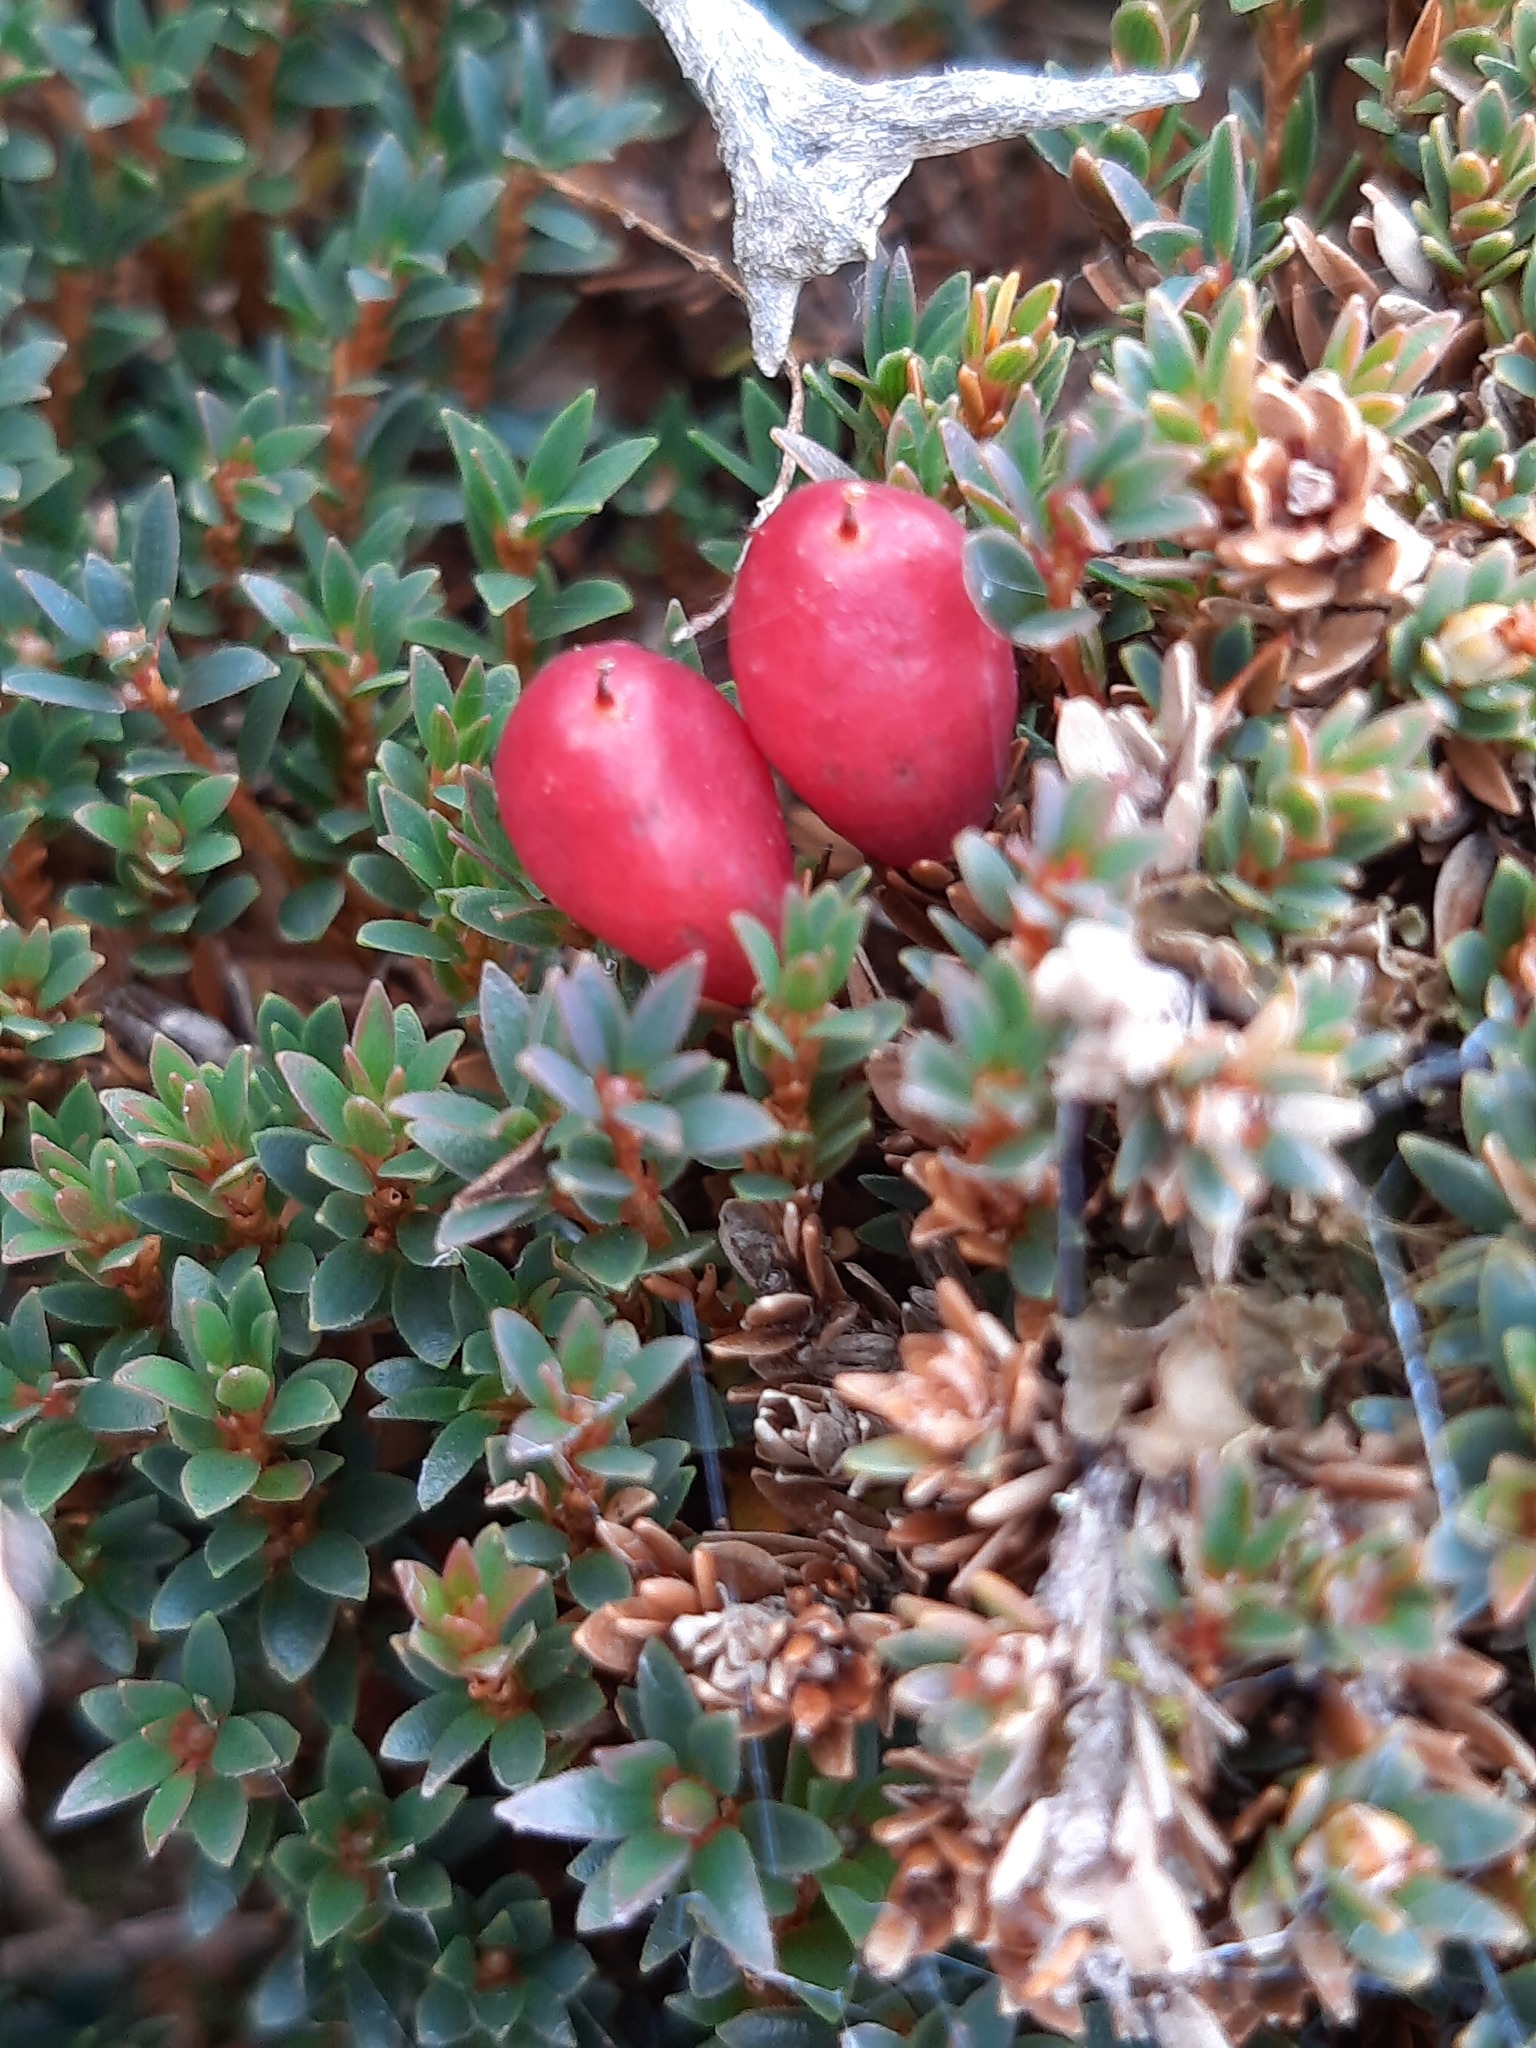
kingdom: Plantae
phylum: Tracheophyta
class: Magnoliopsida
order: Ericales
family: Ericaceae
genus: Pentachondra
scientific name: Pentachondra pumila
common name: Carpet-heath
